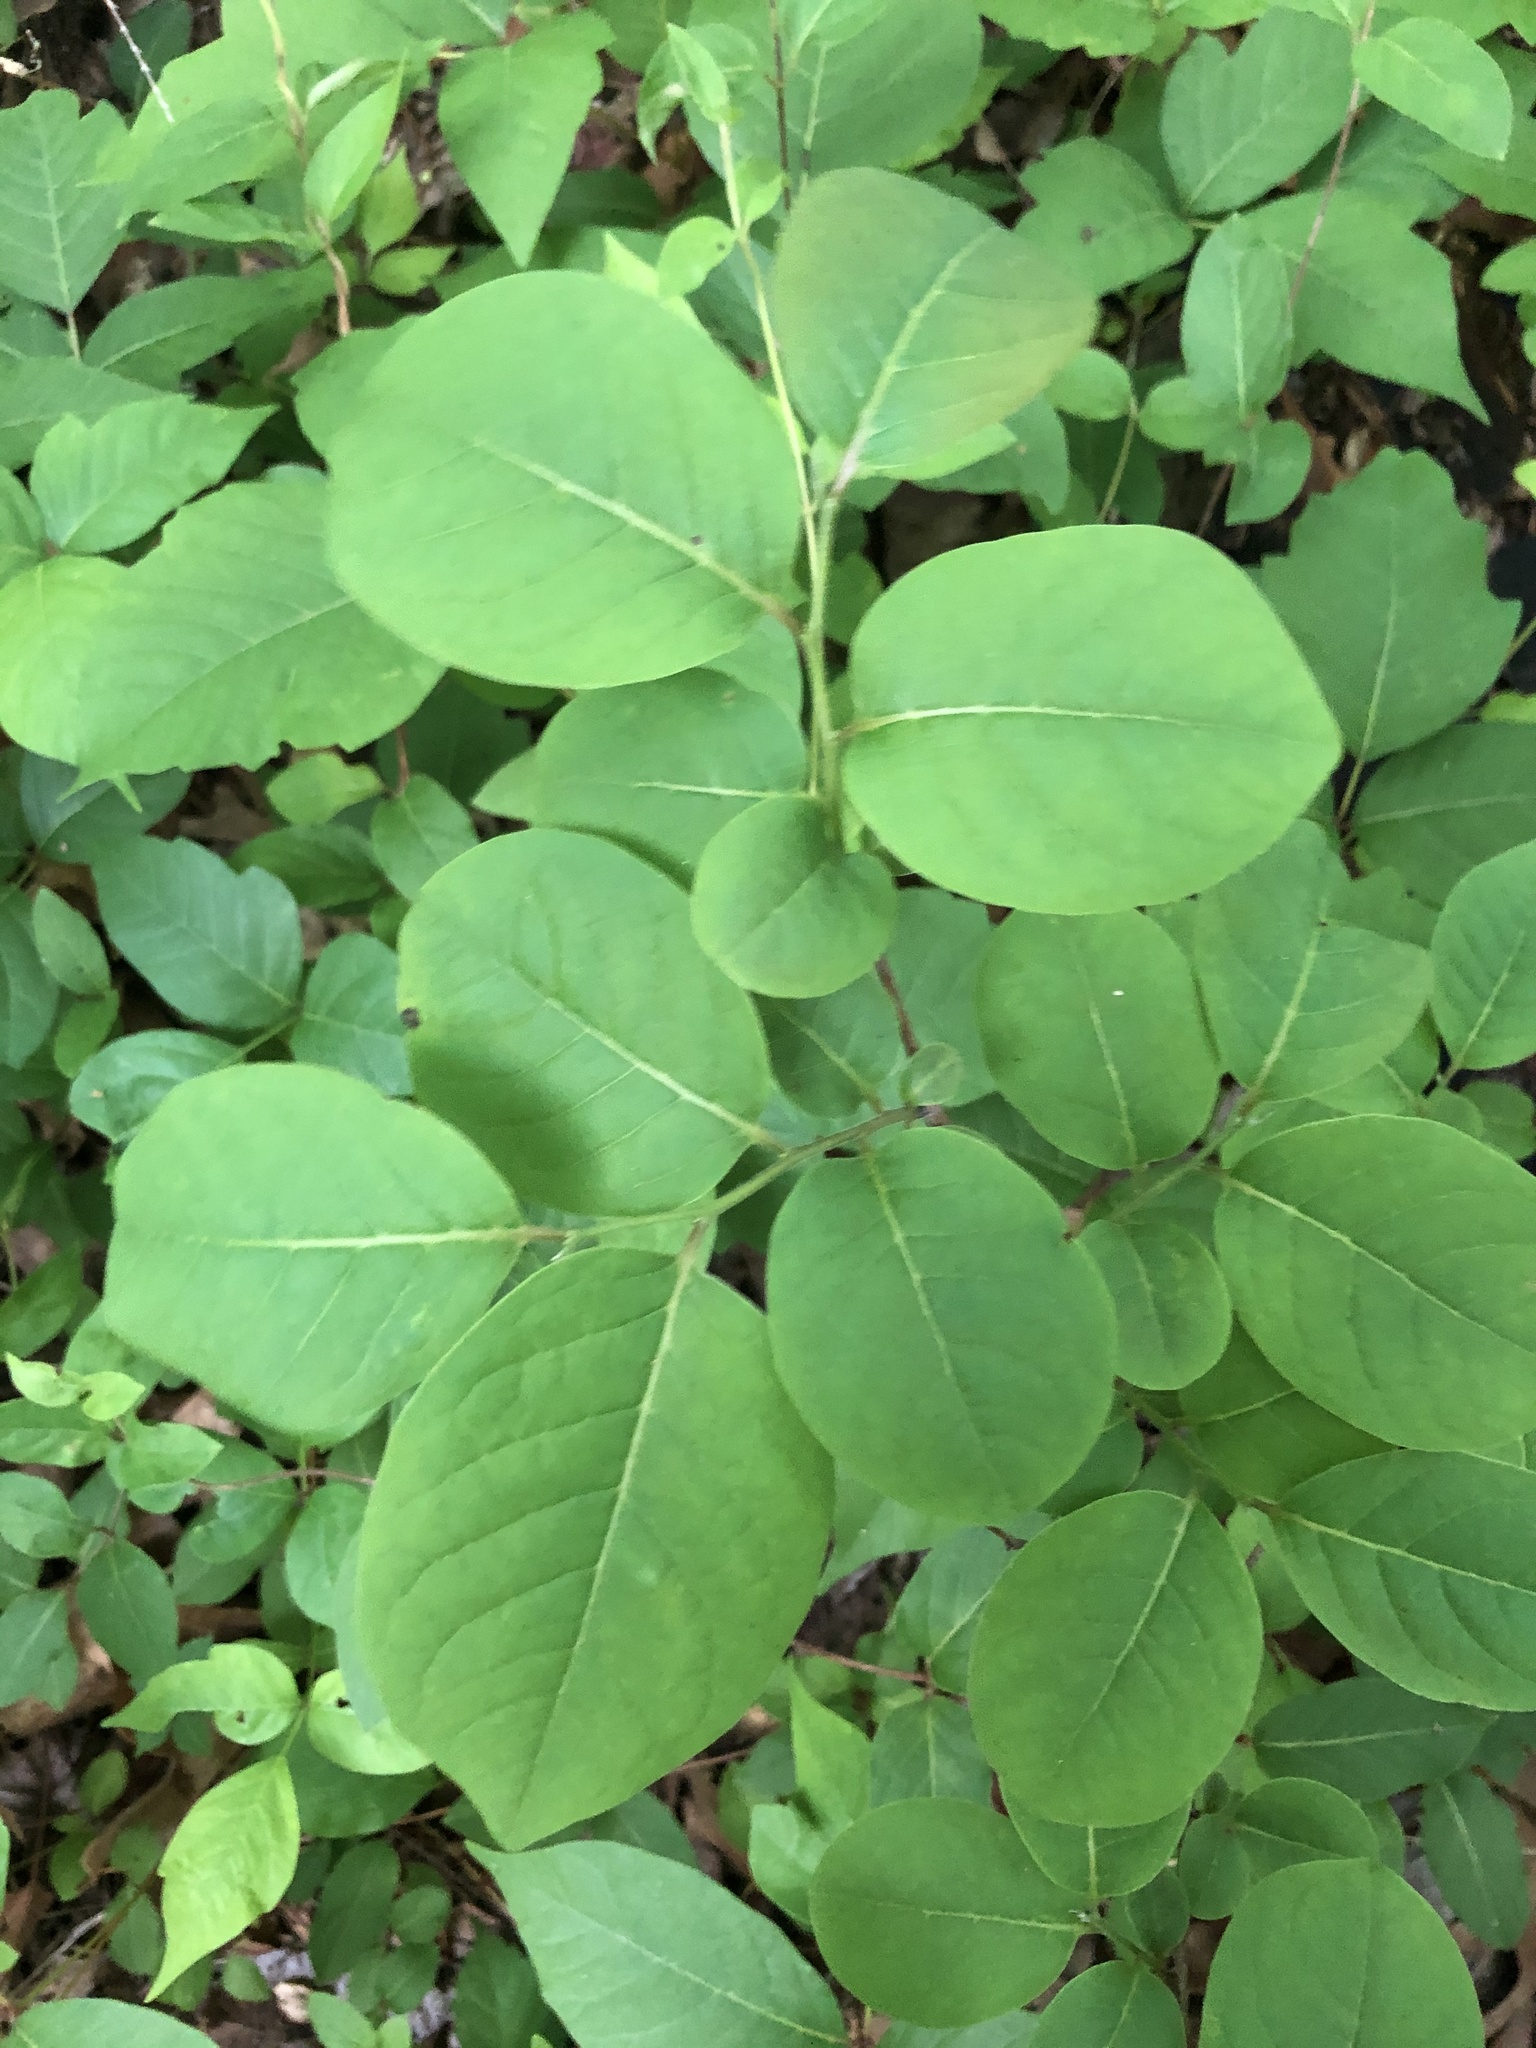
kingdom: Plantae
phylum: Tracheophyta
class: Magnoliopsida
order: Ericales
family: Ebenaceae
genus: Diospyros
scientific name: Diospyros virginiana
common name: Persimmon
